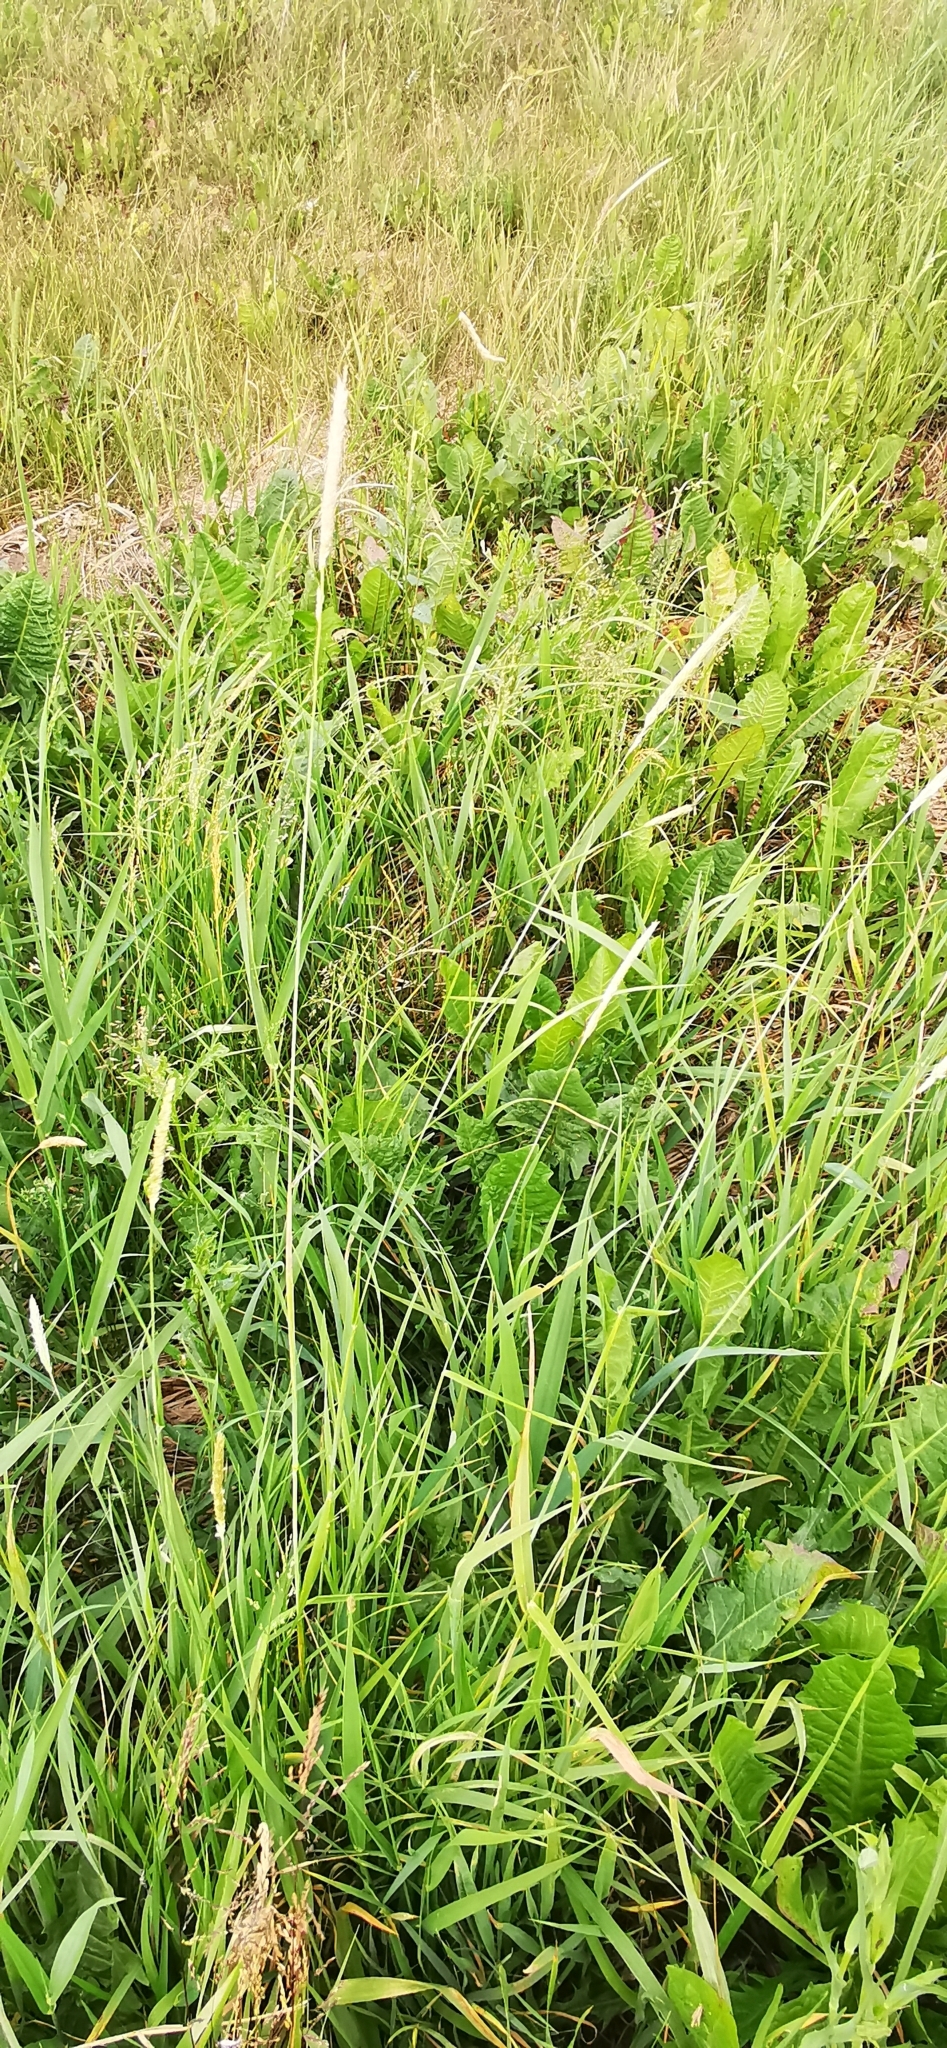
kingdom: Plantae
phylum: Tracheophyta
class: Liliopsida
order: Poales
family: Poaceae
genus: Alopecurus
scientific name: Alopecurus pratensis
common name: Meadow foxtail
